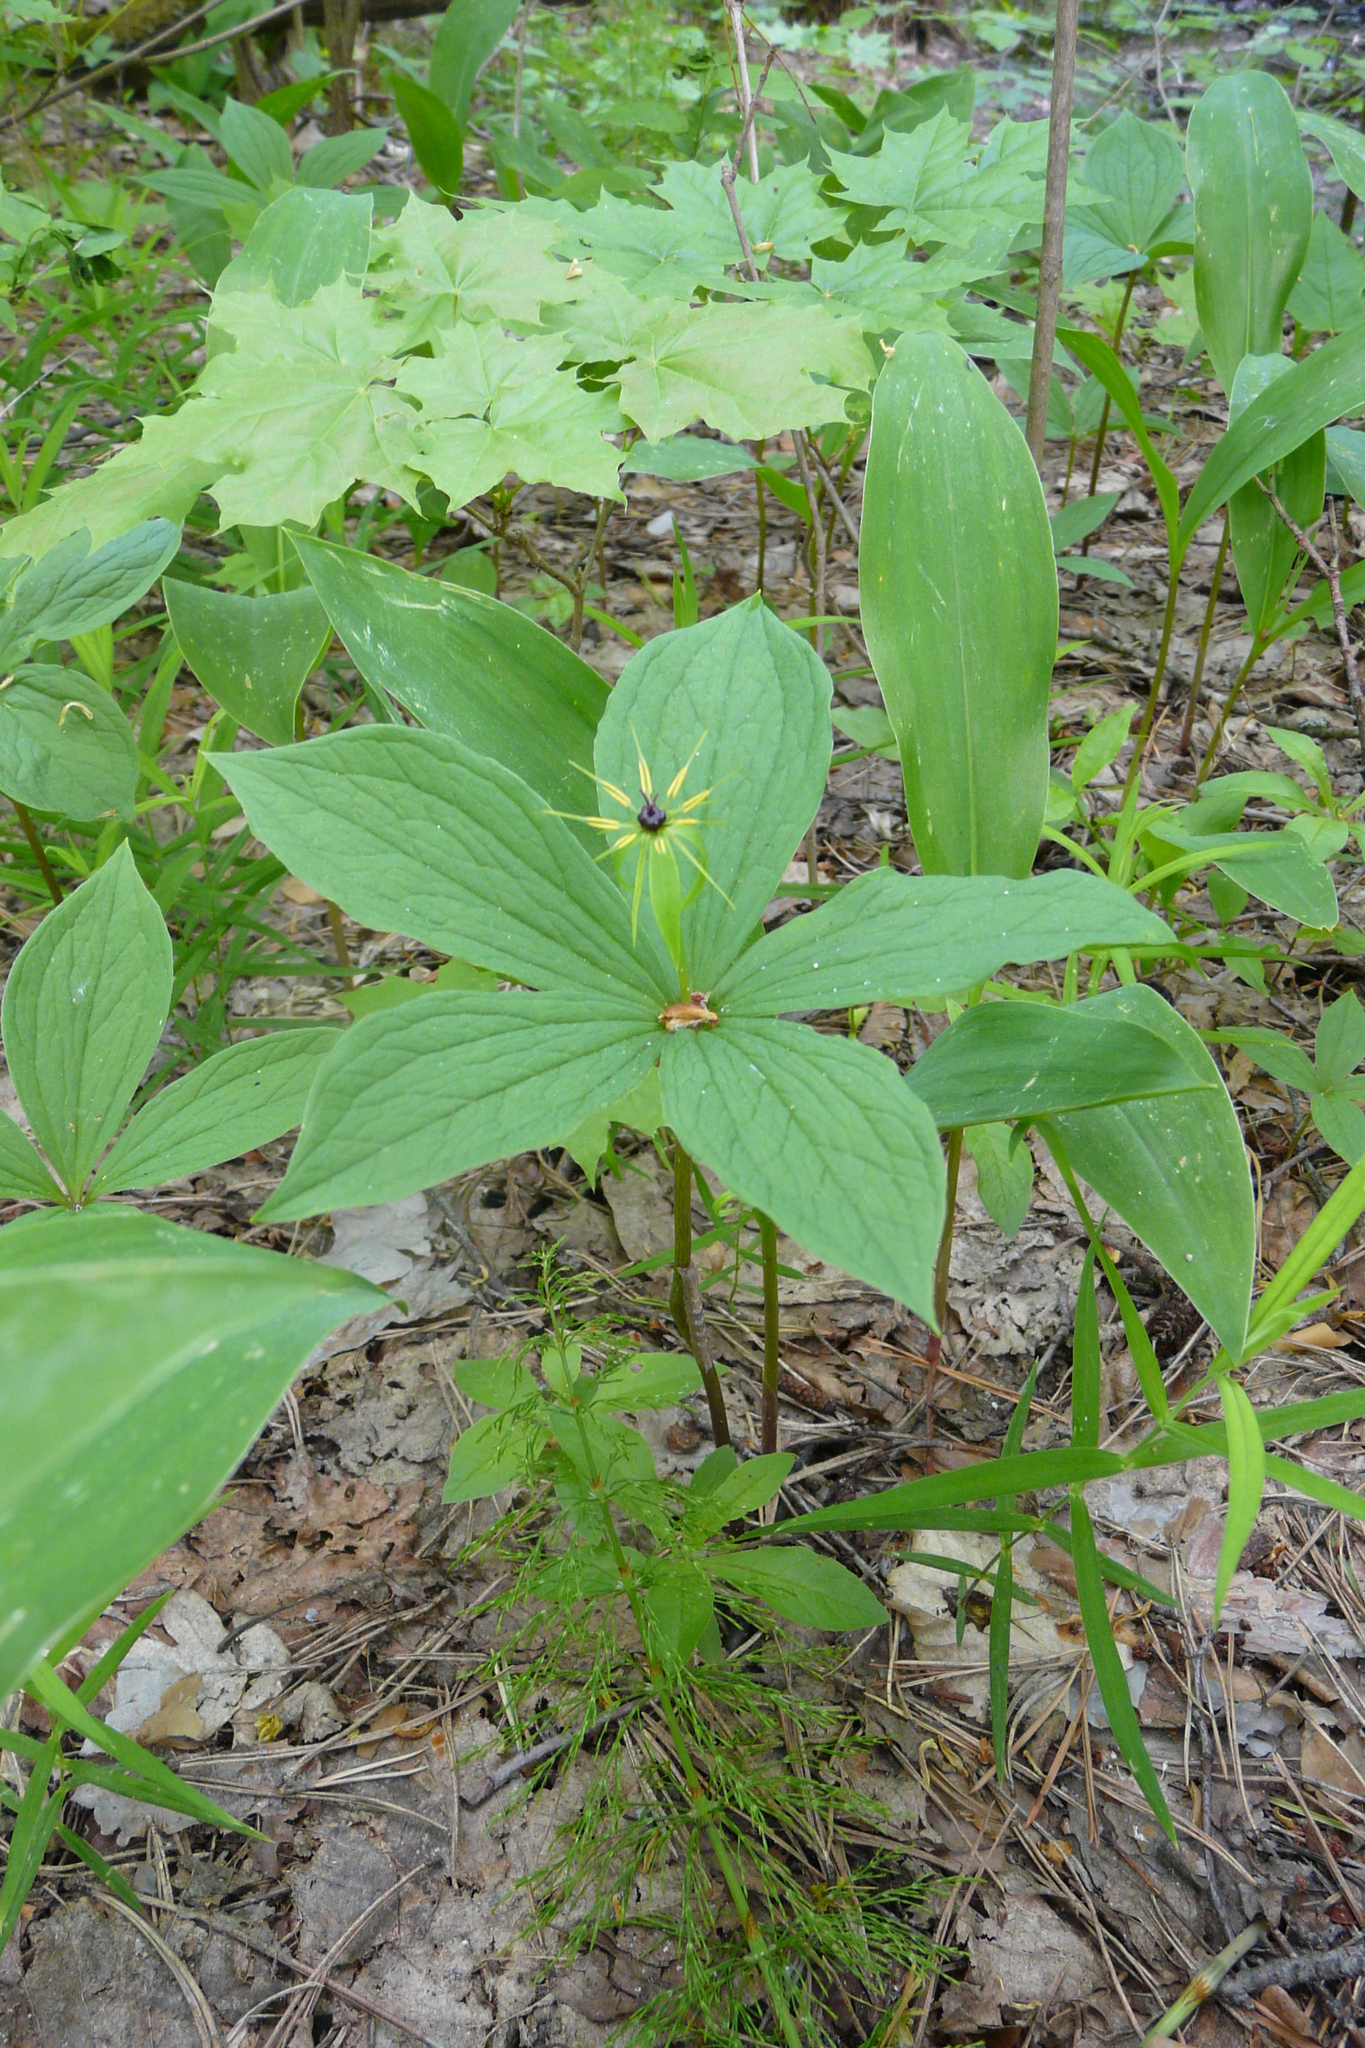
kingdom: Plantae
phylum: Tracheophyta
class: Liliopsida
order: Liliales
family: Melanthiaceae
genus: Paris
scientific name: Paris quadrifolia
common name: Herb-paris
